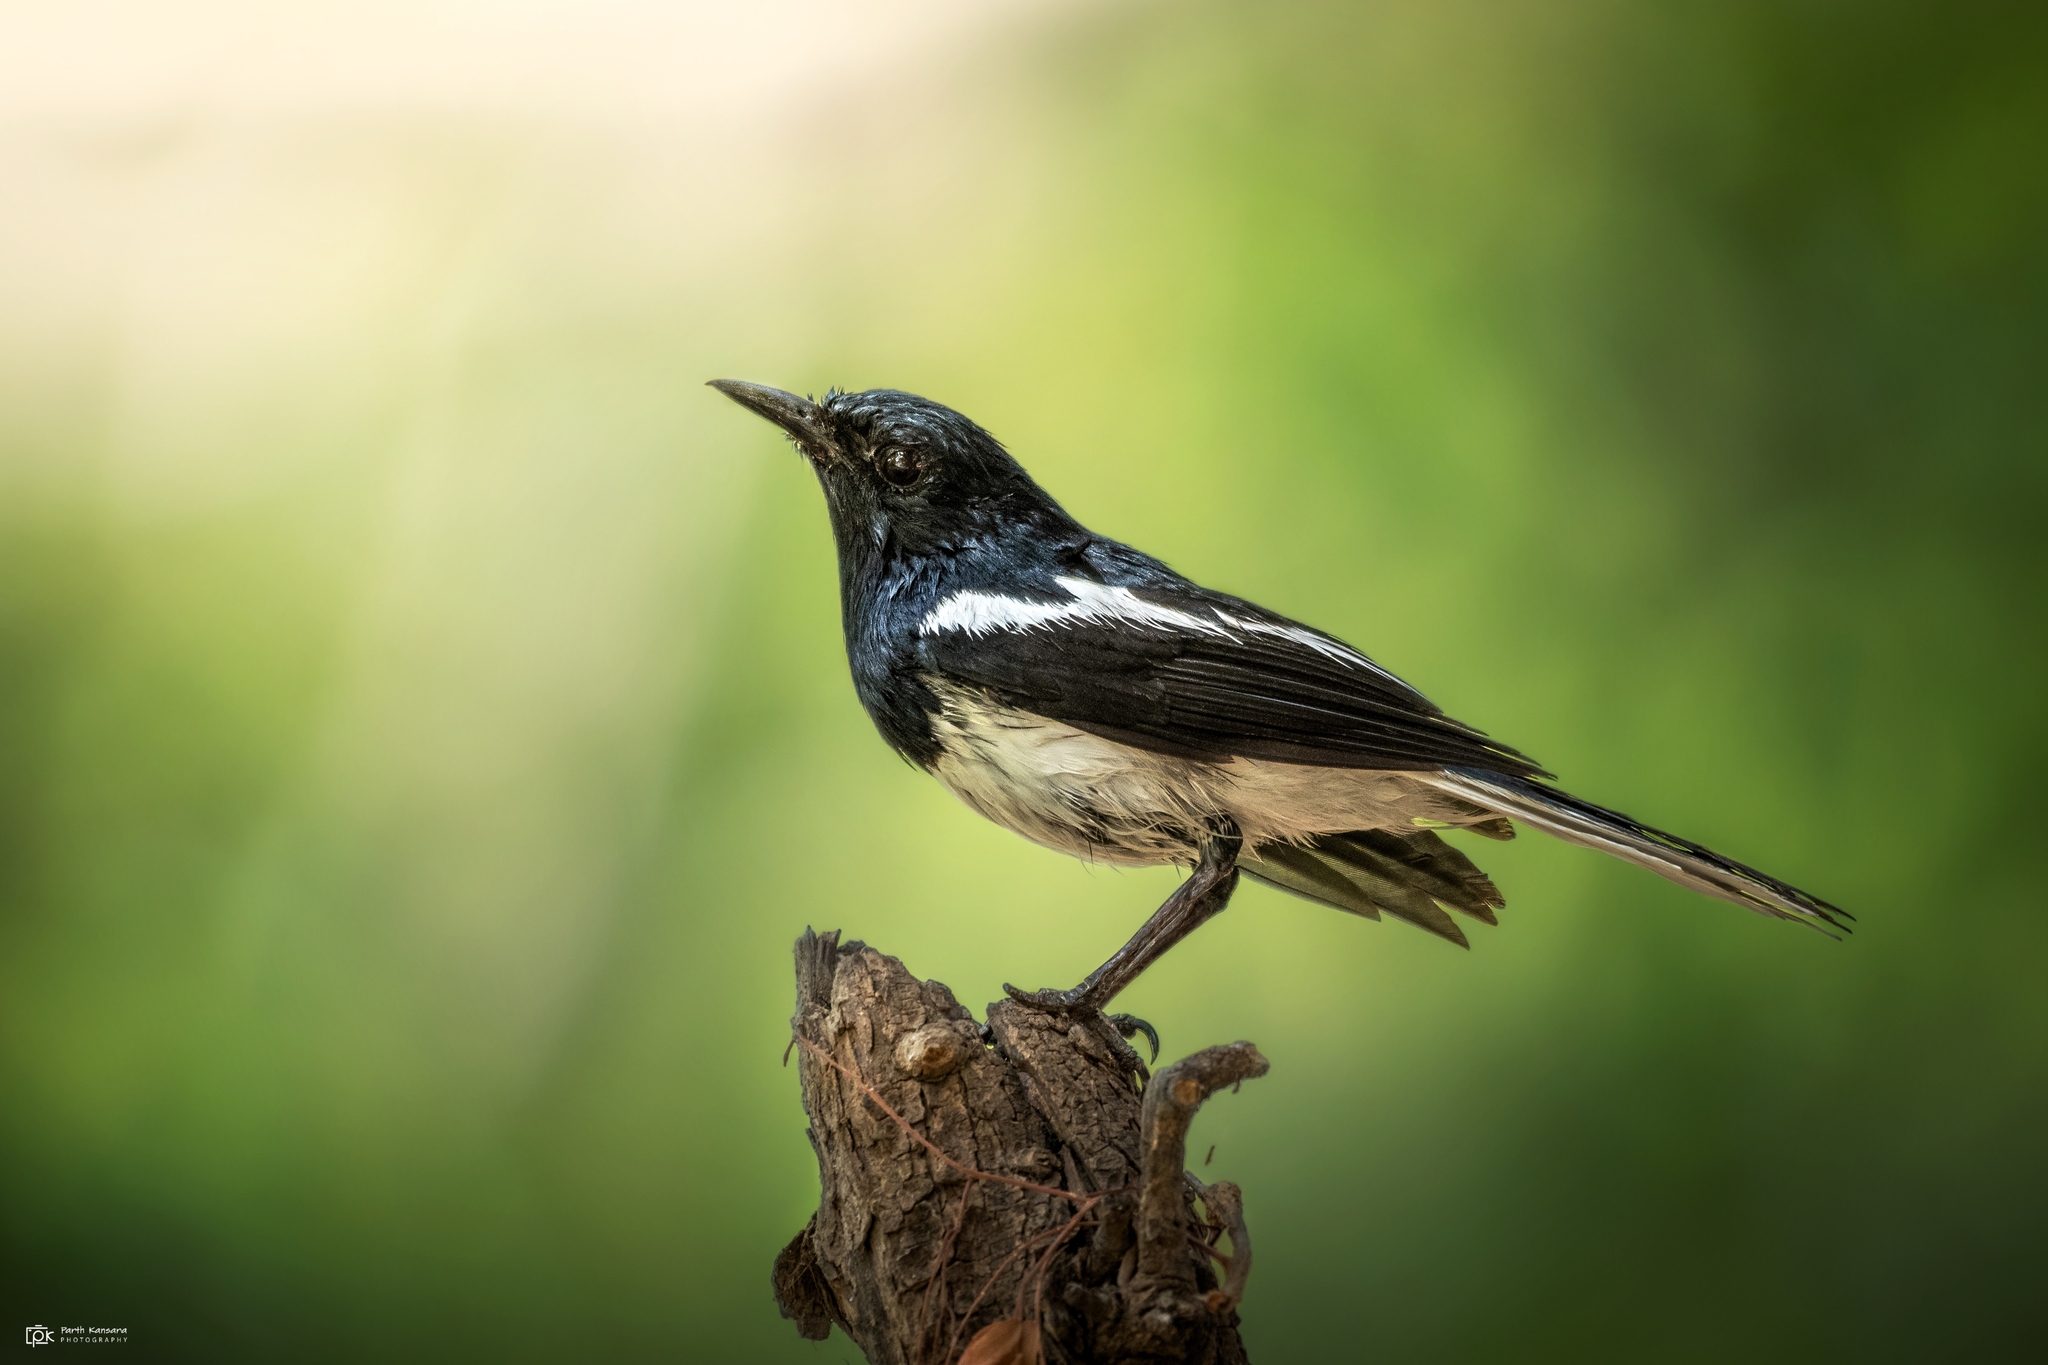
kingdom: Animalia
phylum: Chordata
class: Aves
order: Passeriformes
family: Muscicapidae
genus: Copsychus
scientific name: Copsychus saularis
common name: Oriental magpie-robin
